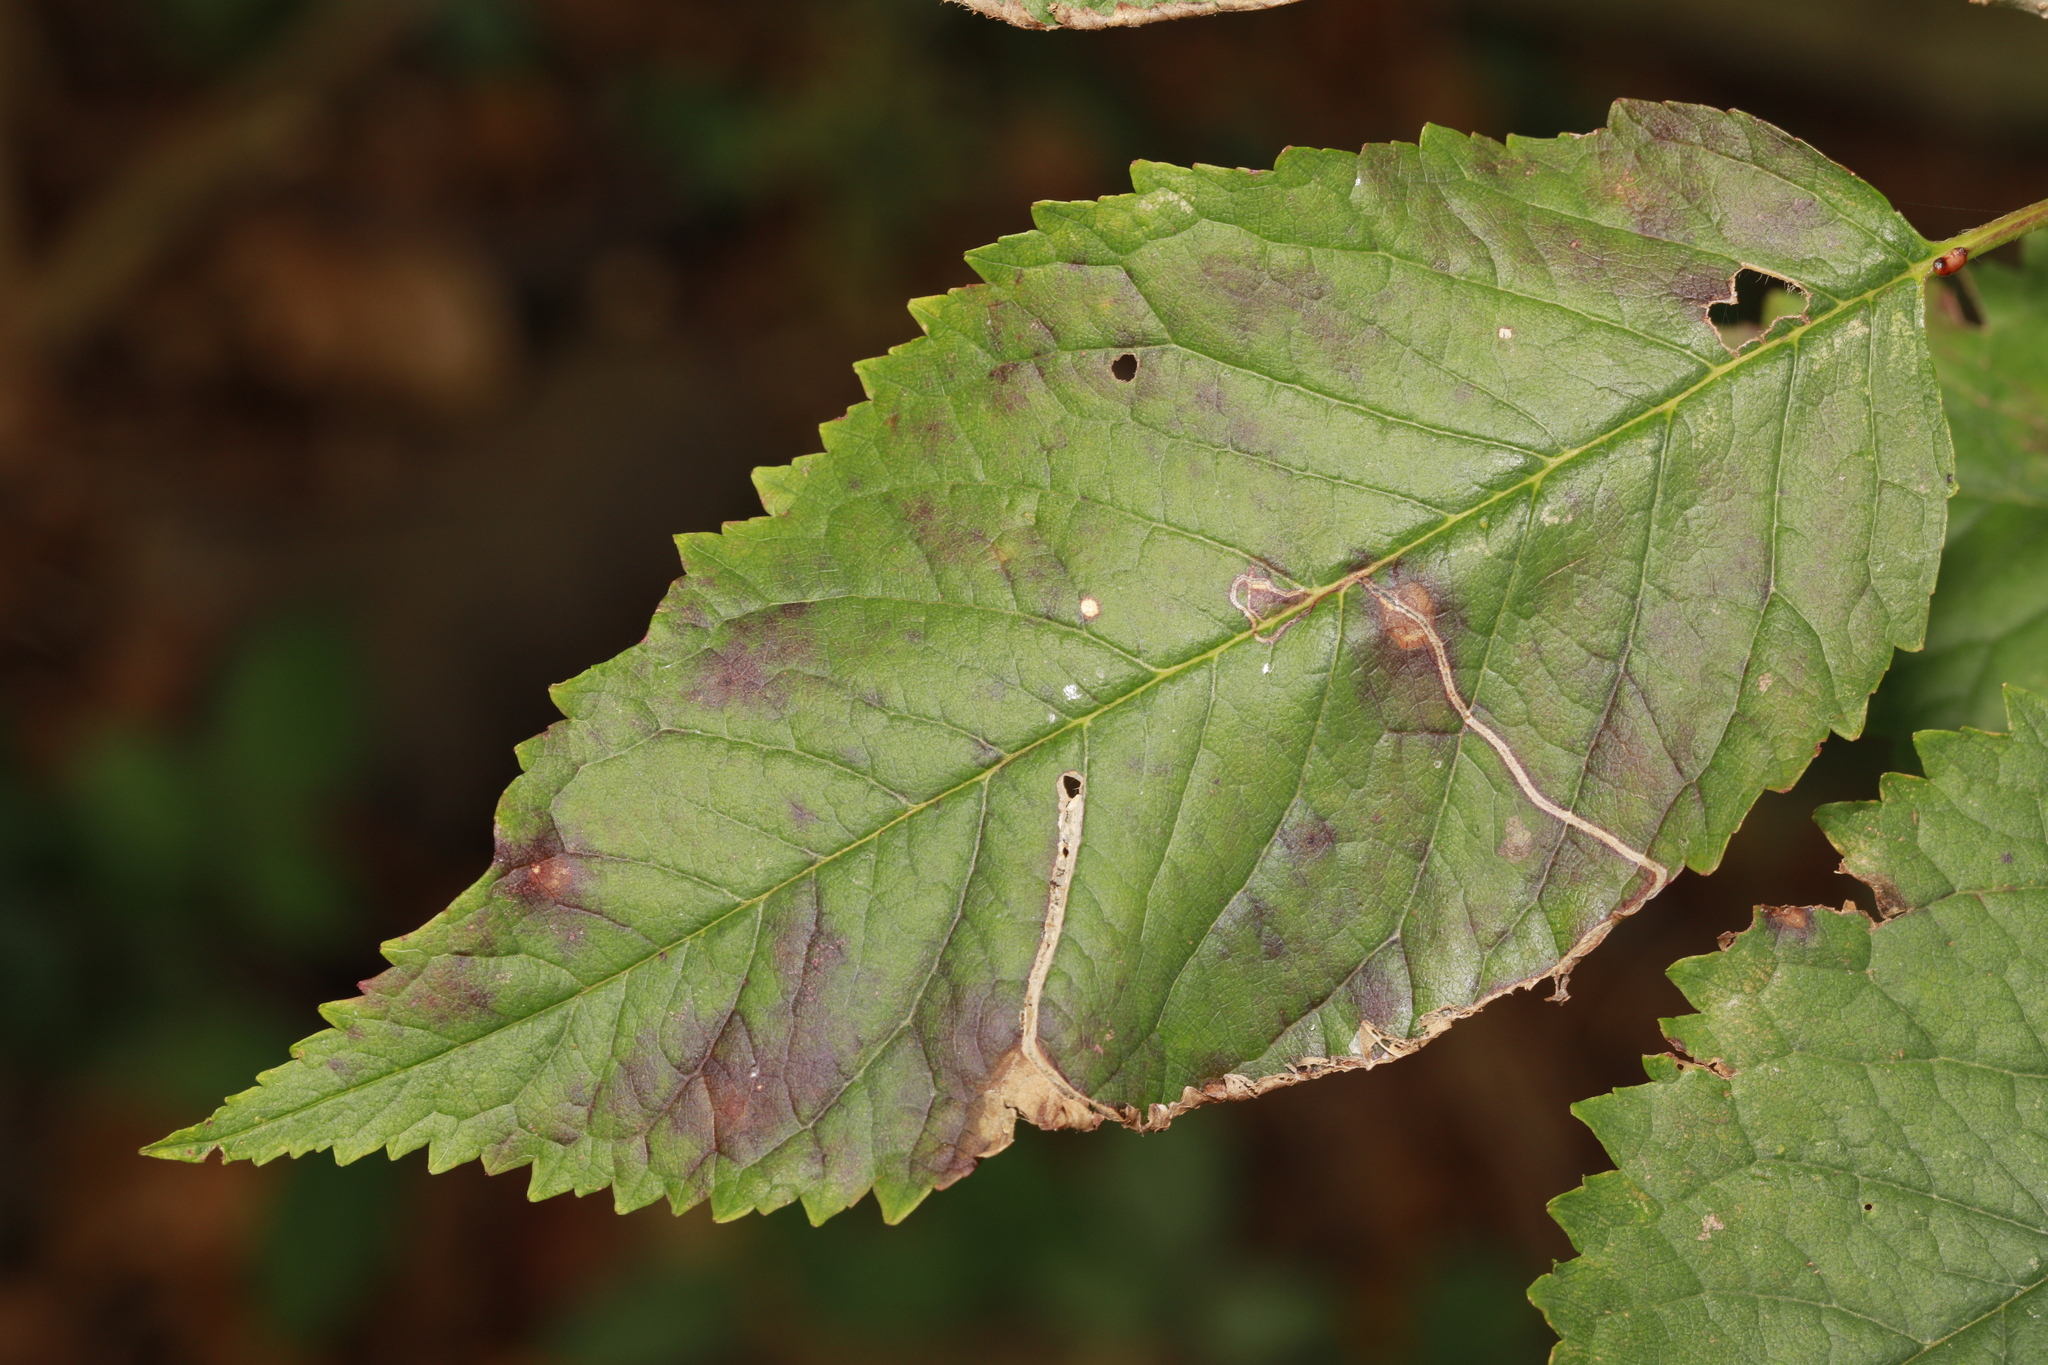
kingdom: Animalia
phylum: Arthropoda
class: Insecta
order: Lepidoptera
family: Lyonetiidae
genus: Lyonetia
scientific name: Lyonetia clerkella
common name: Apple leaf miner
